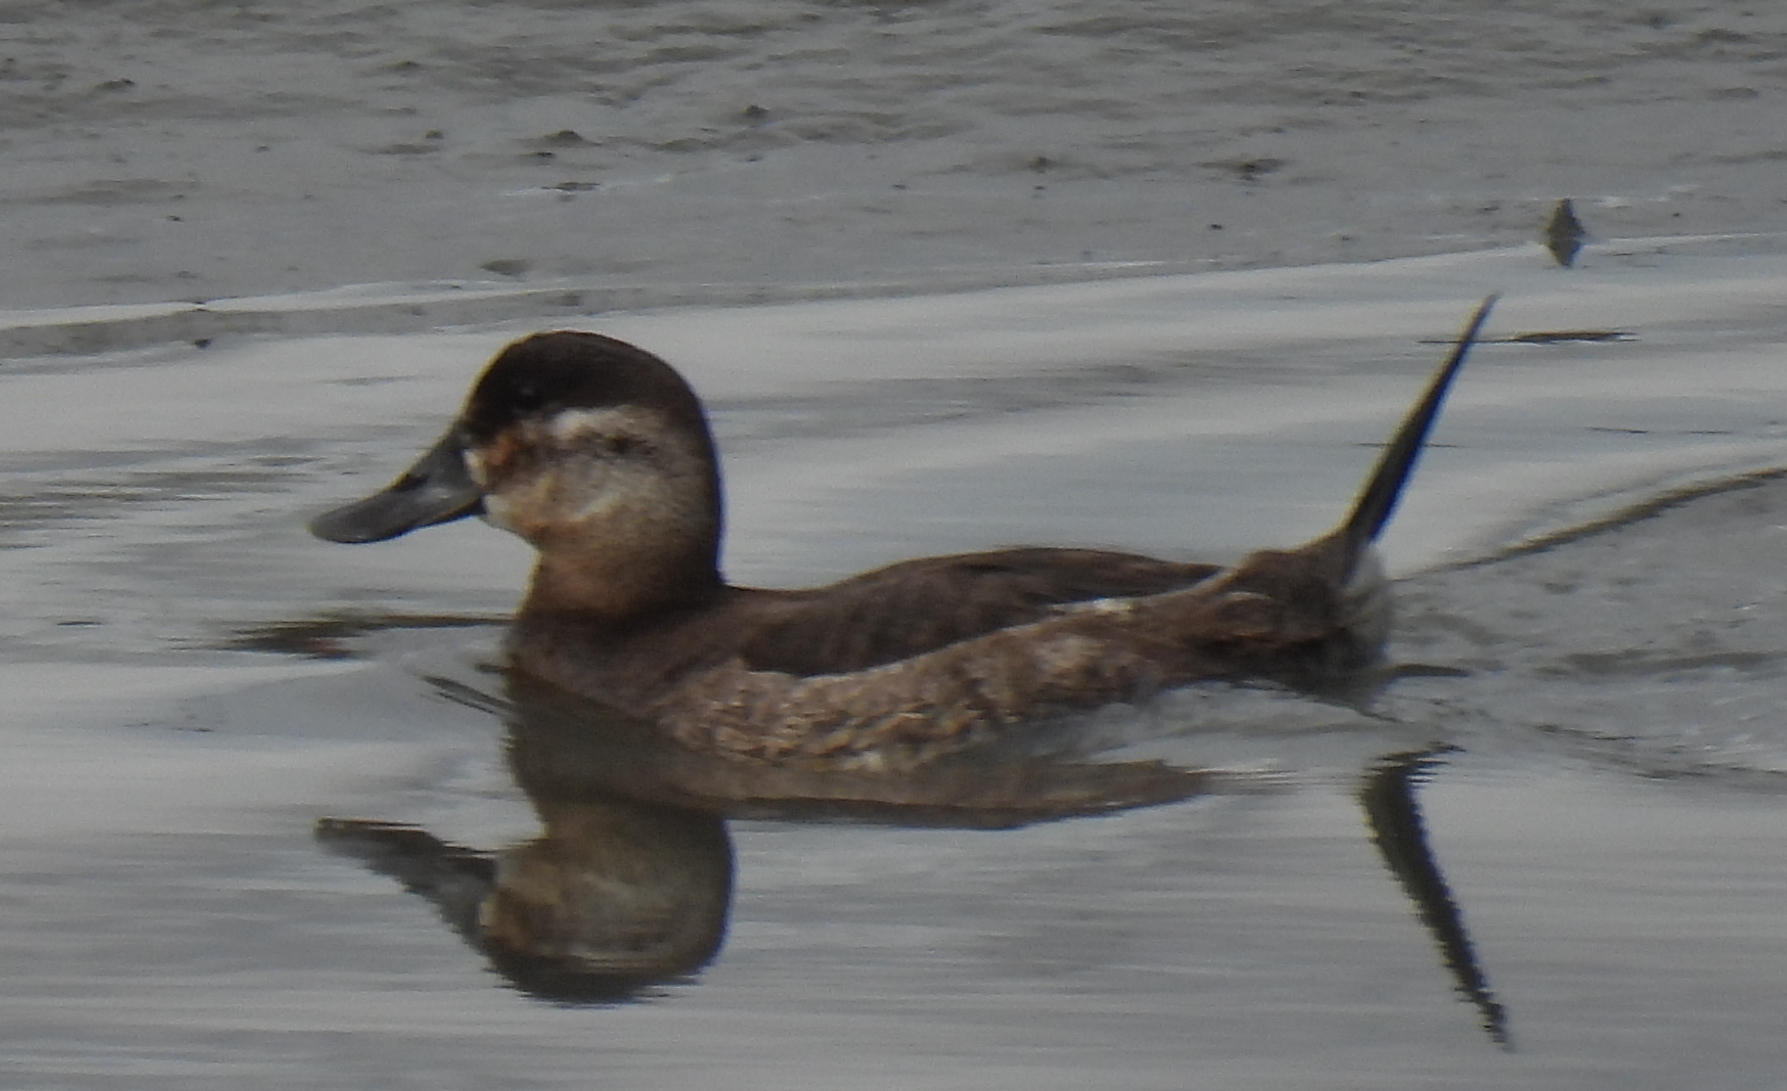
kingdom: Animalia
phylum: Chordata
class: Aves
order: Anseriformes
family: Anatidae
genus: Oxyura
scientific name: Oxyura jamaicensis
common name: Ruddy duck
